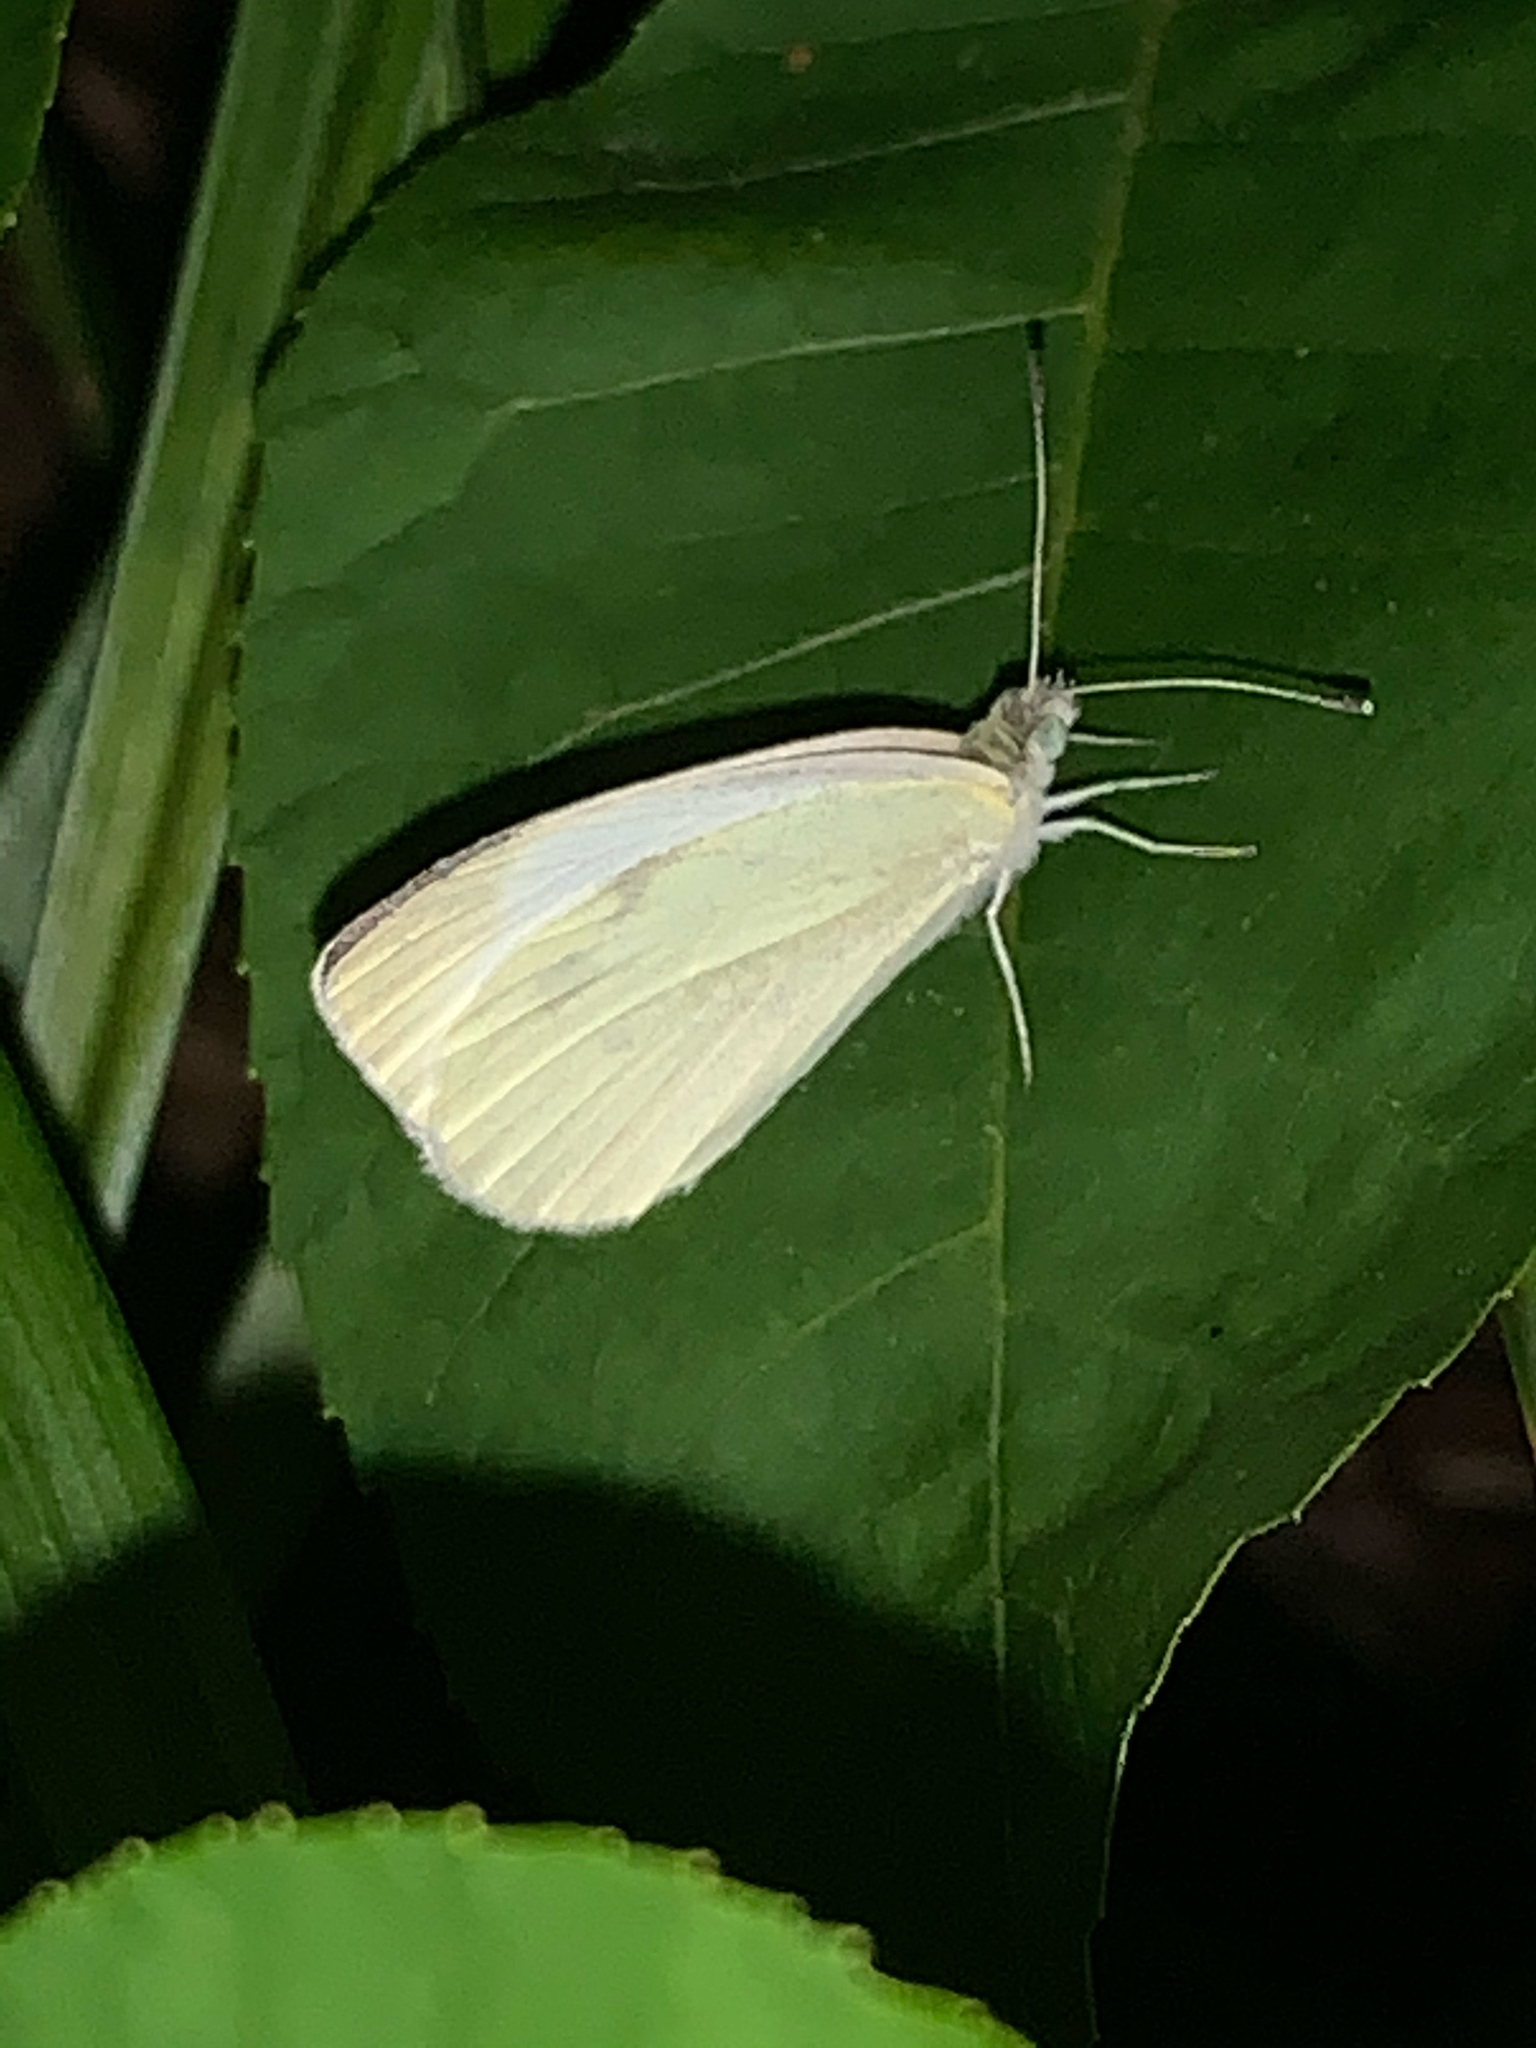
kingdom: Animalia
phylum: Arthropoda
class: Insecta
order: Lepidoptera
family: Pieridae
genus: Pieris
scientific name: Pieris rapae
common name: Small white
